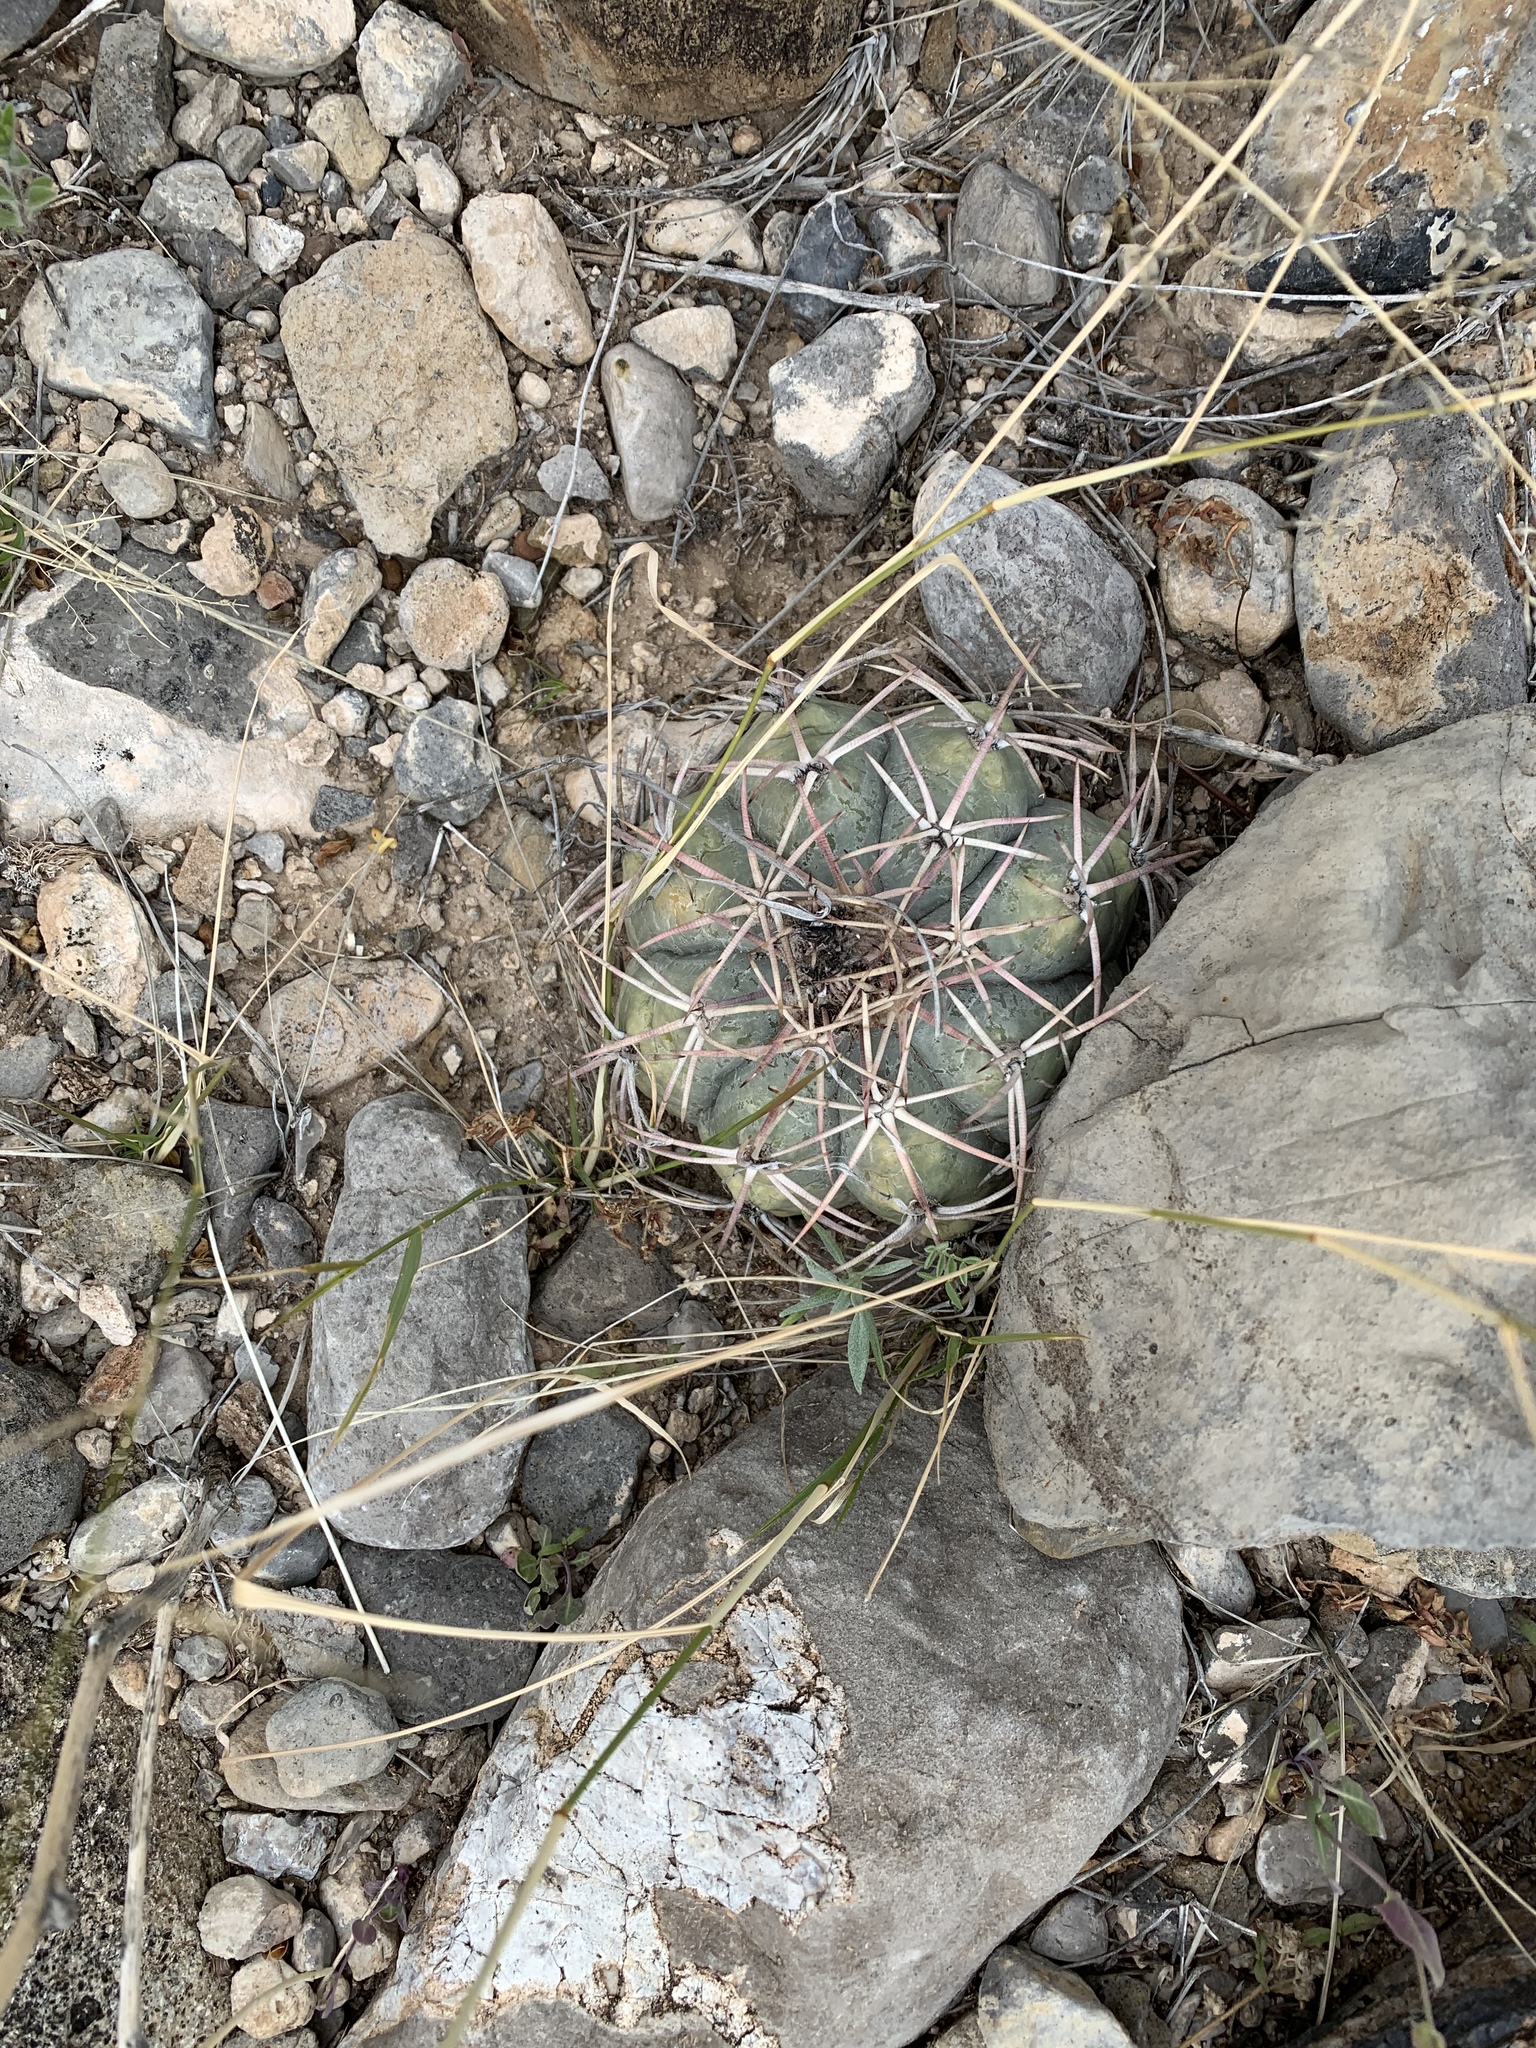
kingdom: Plantae
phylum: Tracheophyta
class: Magnoliopsida
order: Caryophyllales
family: Cactaceae
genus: Echinocactus
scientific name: Echinocactus horizonthalonius
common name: Devilshead
